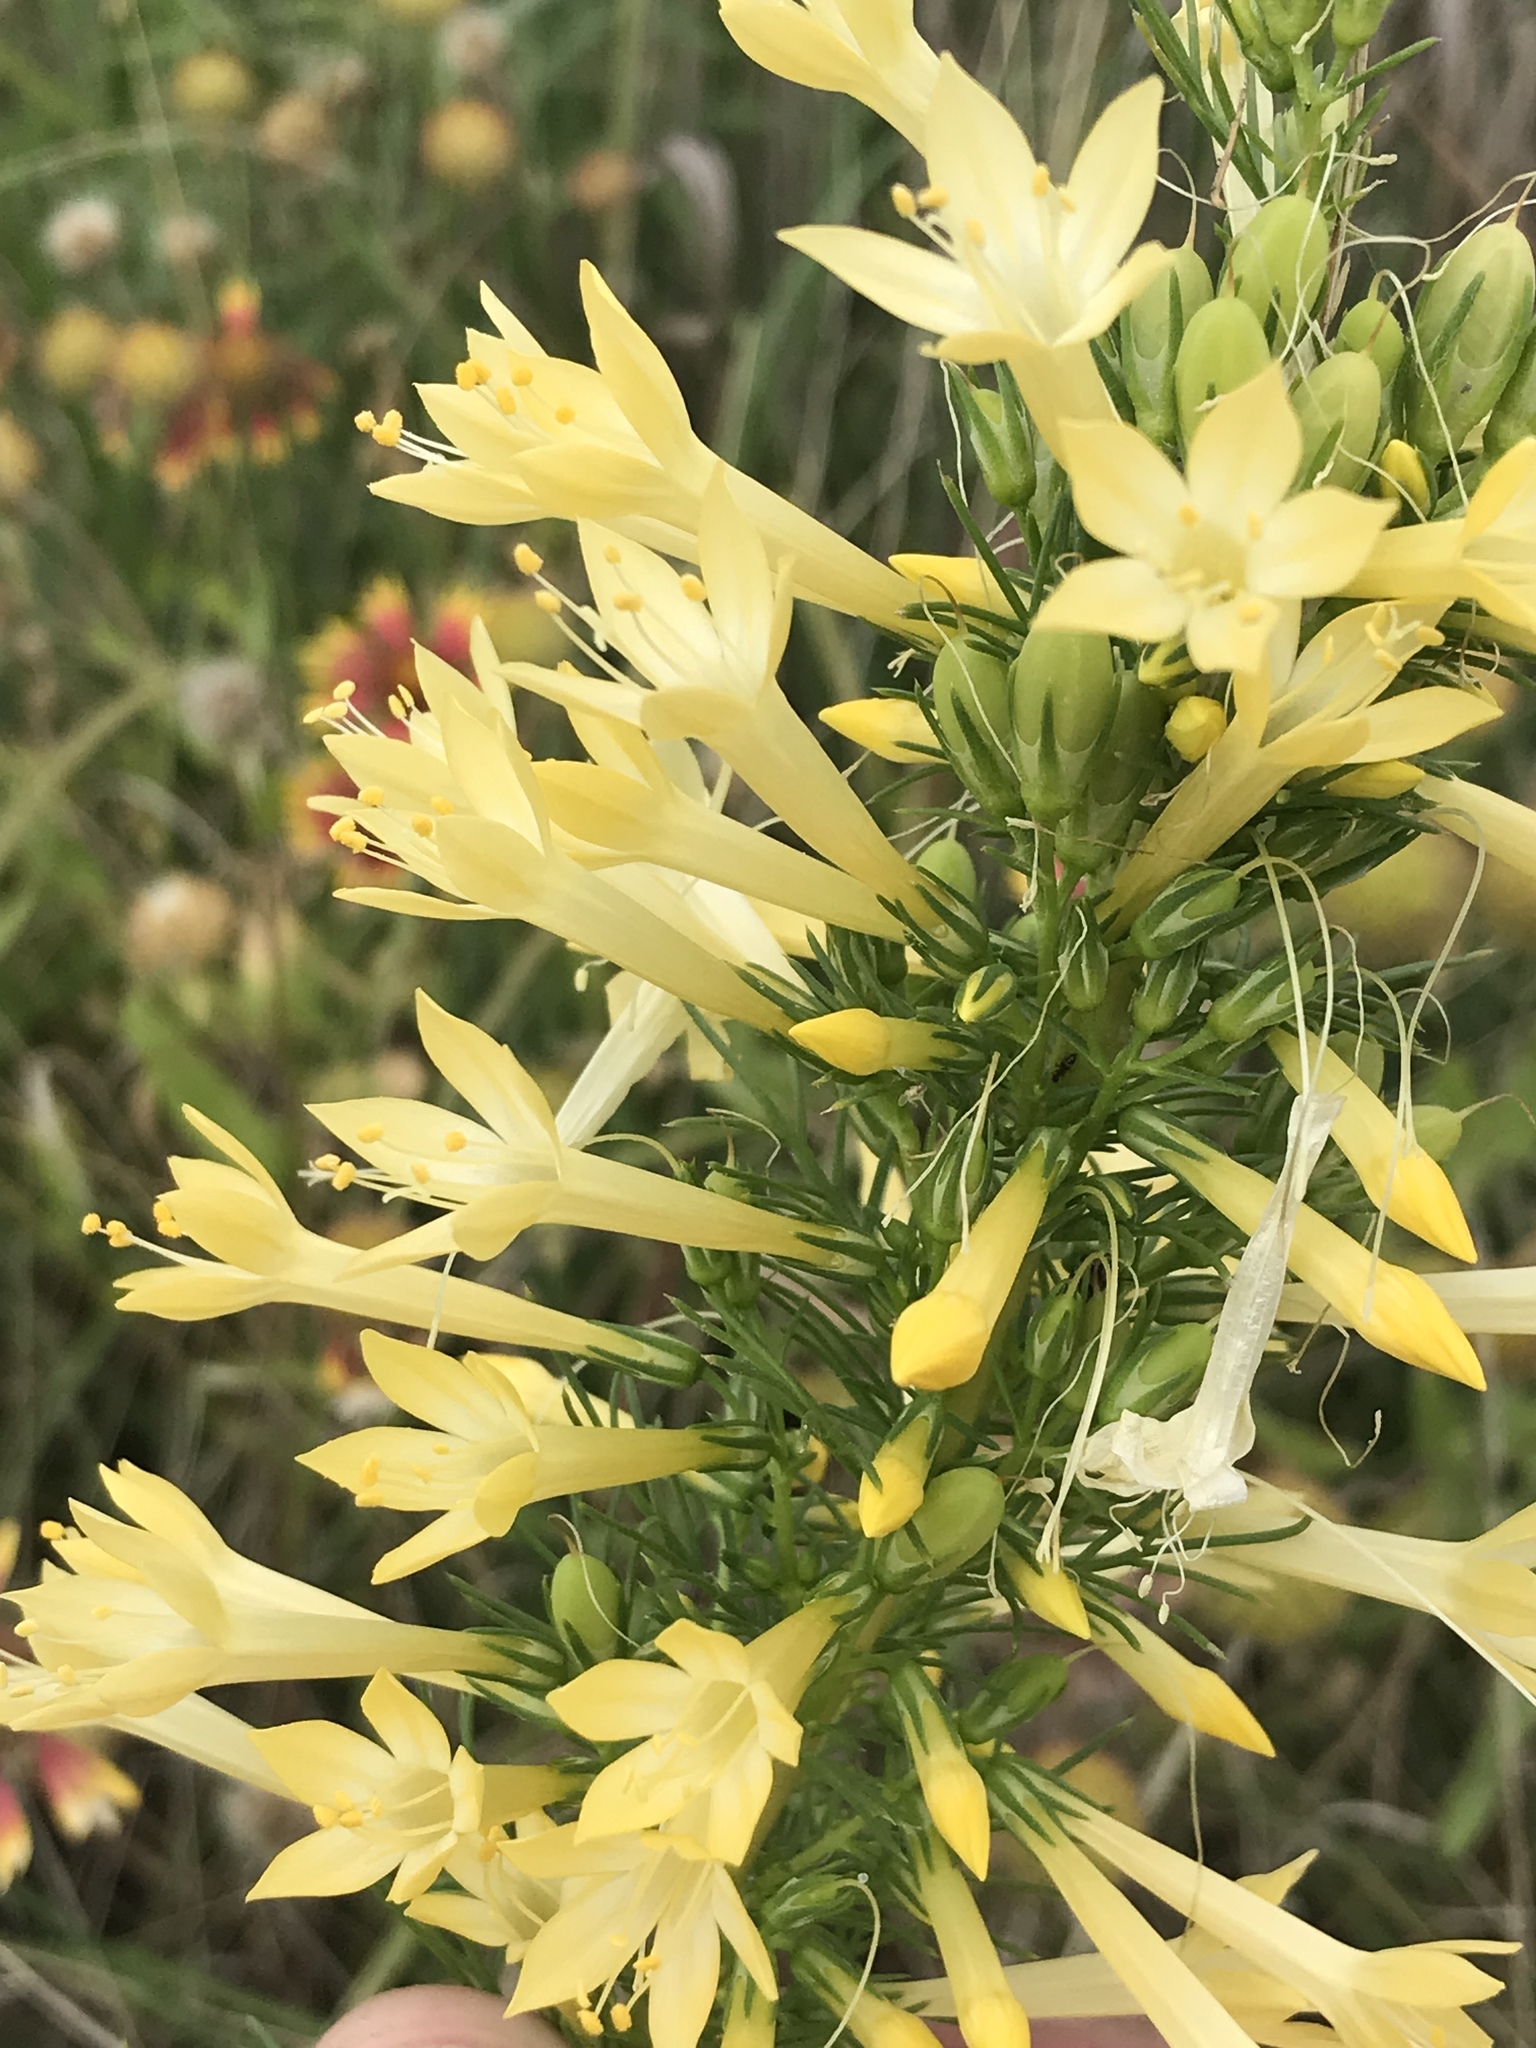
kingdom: Plantae
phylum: Tracheophyta
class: Magnoliopsida
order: Ericales
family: Polemoniaceae
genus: Ipomopsis
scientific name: Ipomopsis rubra
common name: Skyrocket
